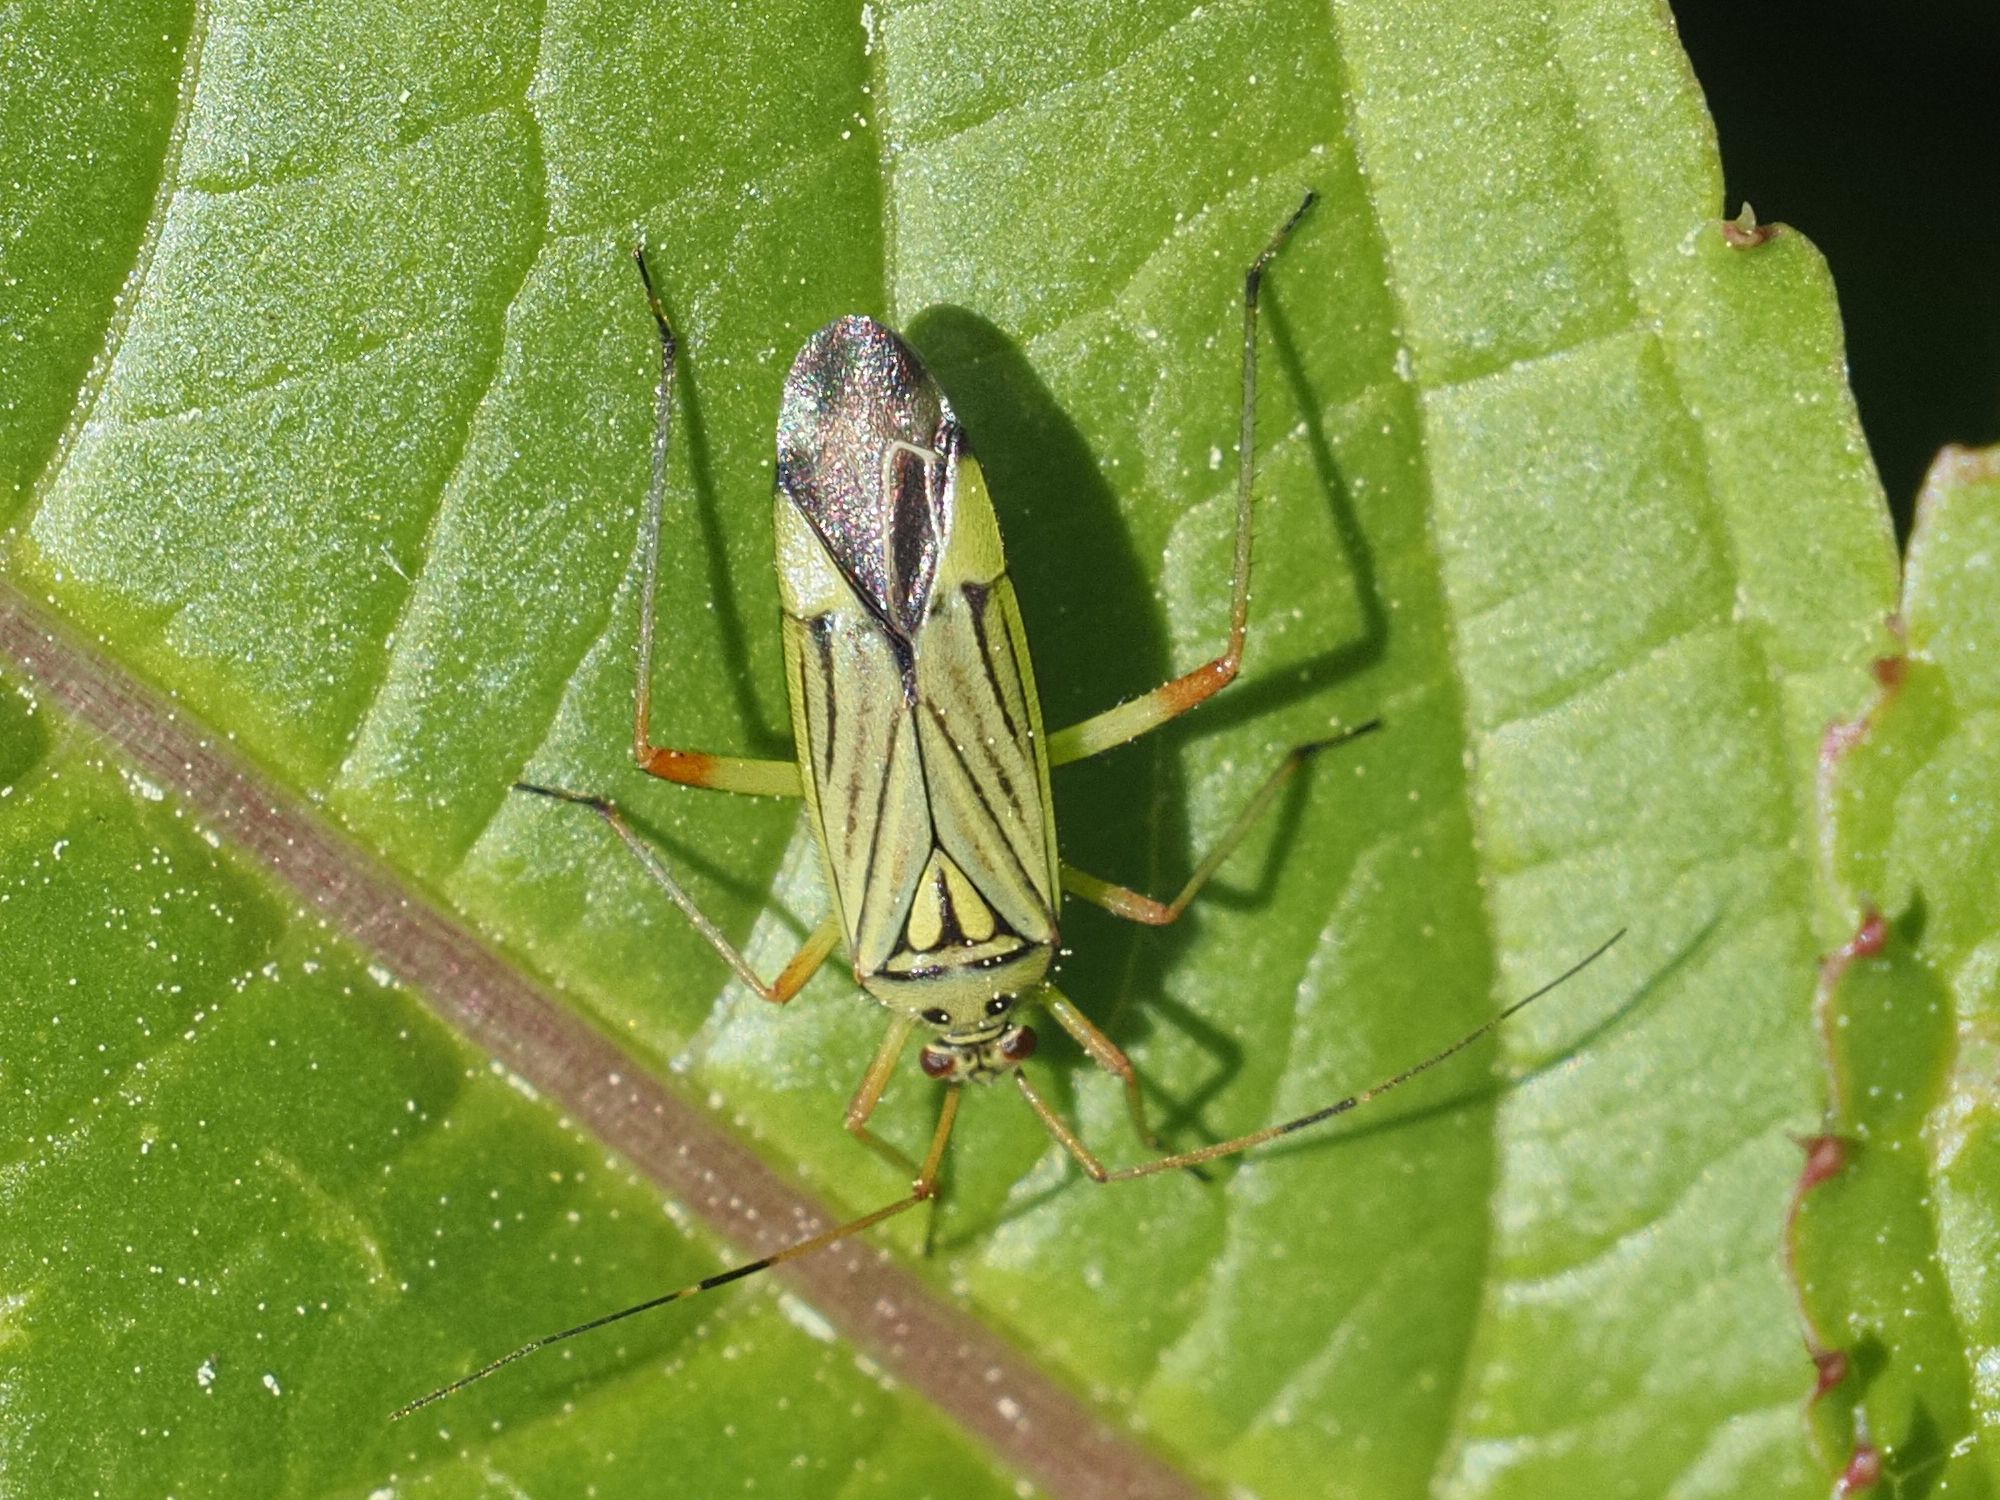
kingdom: Animalia
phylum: Arthropoda
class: Insecta
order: Hemiptera
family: Miridae
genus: Mermitelocerus
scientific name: Mermitelocerus schmidtii
